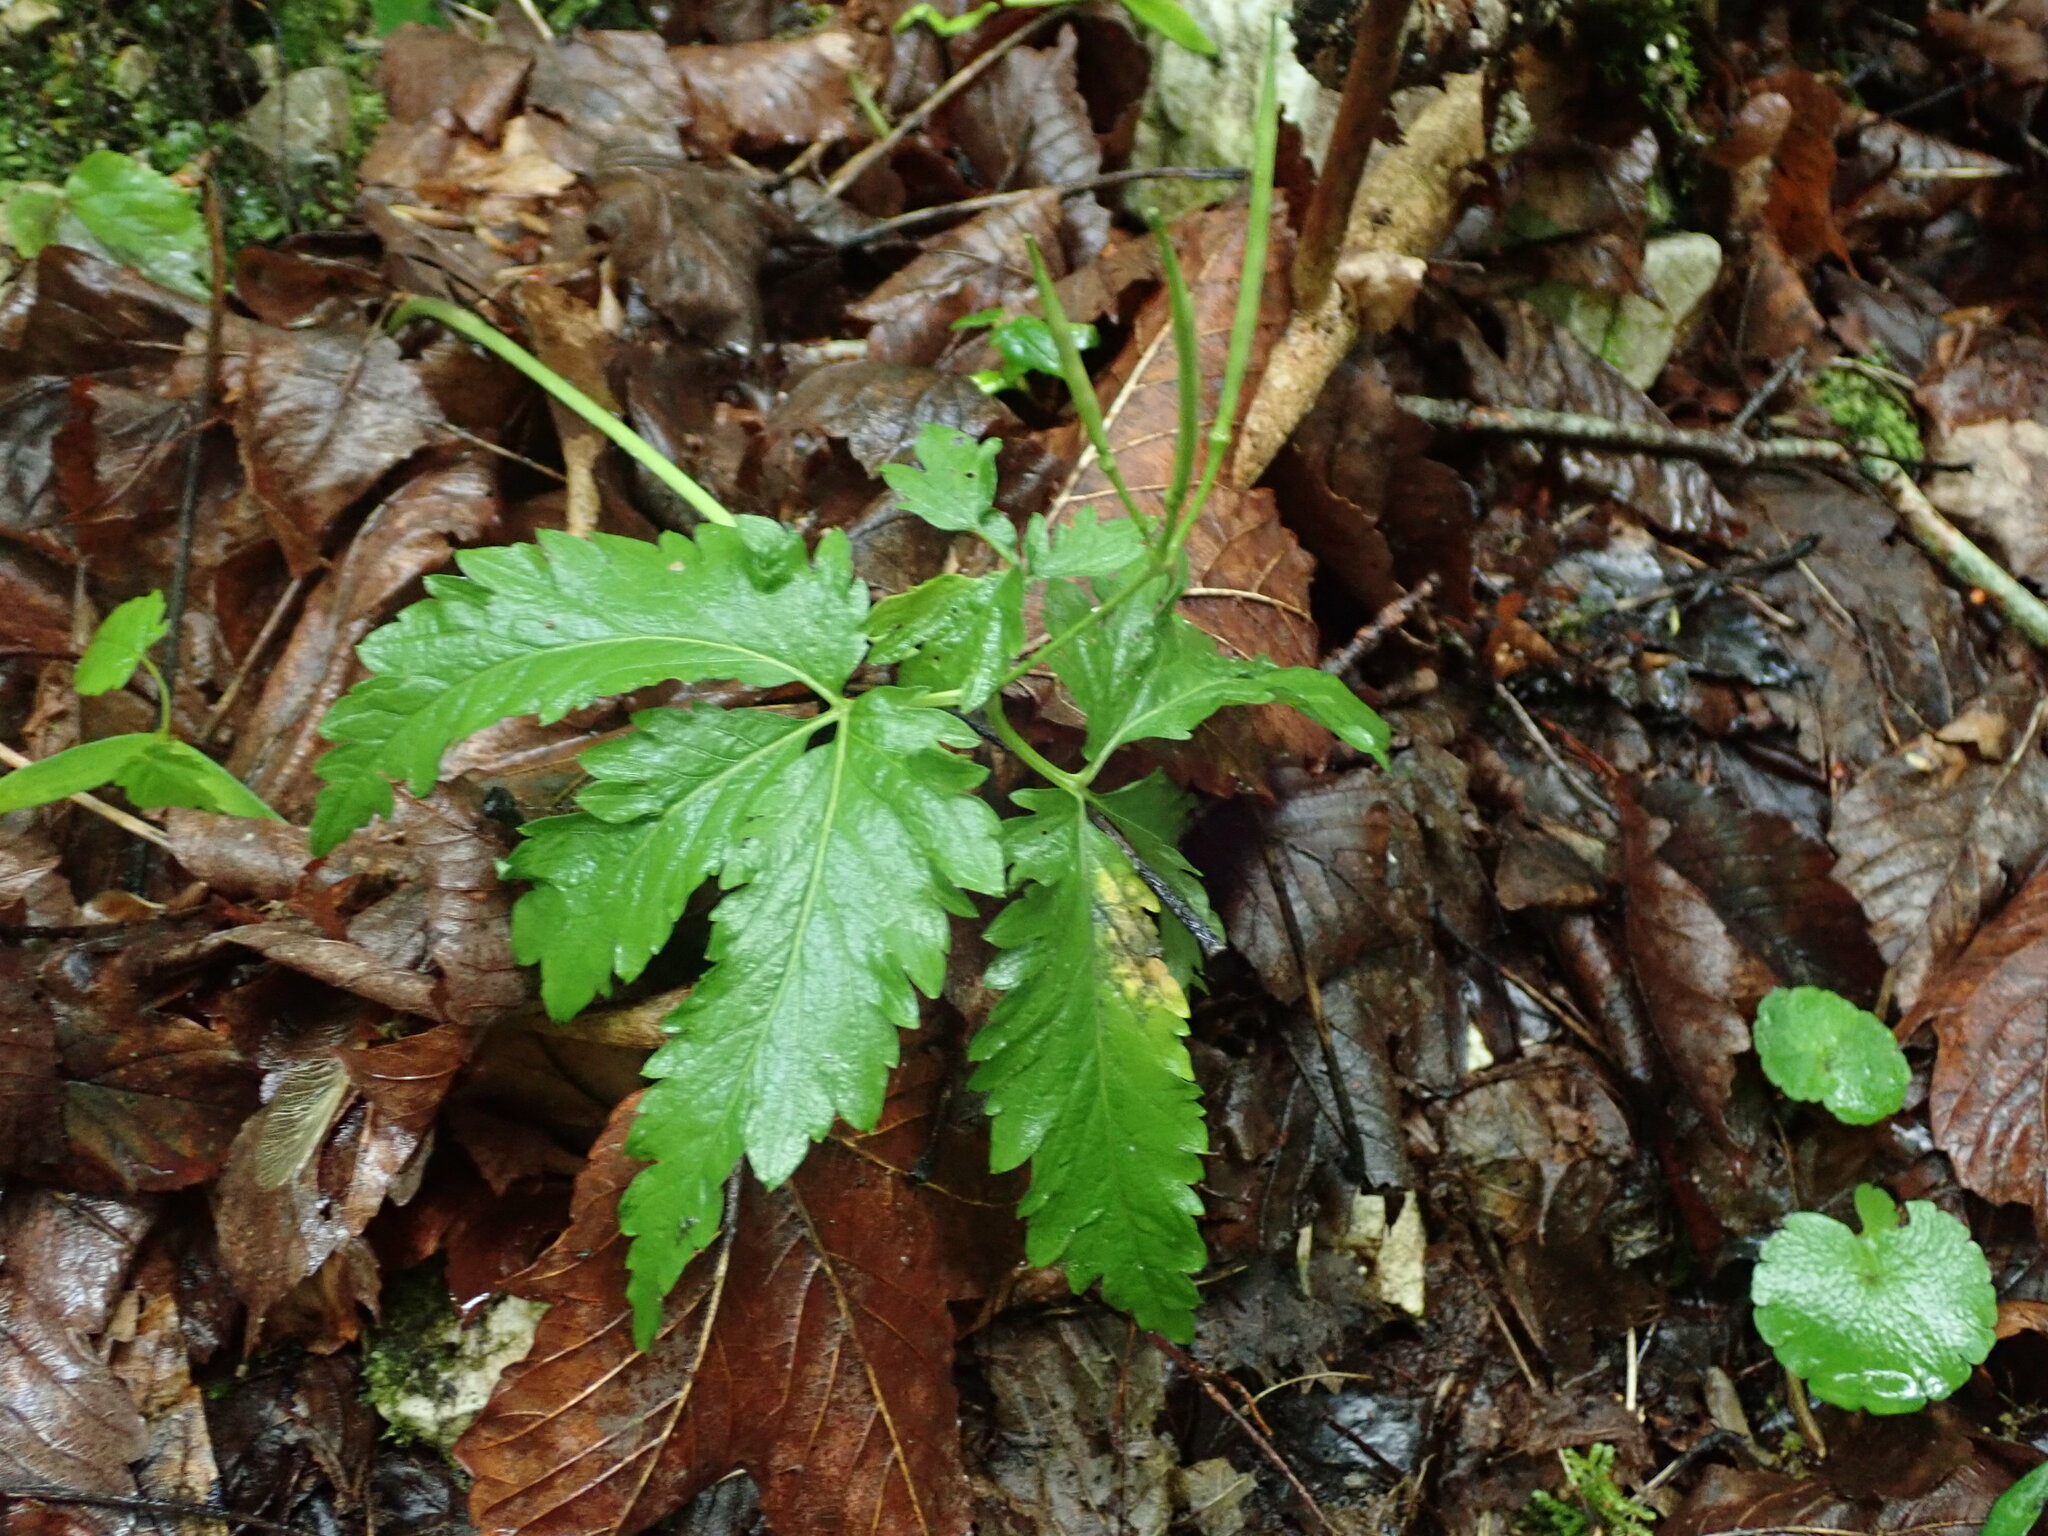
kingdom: Plantae
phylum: Tracheophyta
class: Magnoliopsida
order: Brassicales
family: Brassicaceae
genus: Cardamine
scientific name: Cardamine glanduligera
